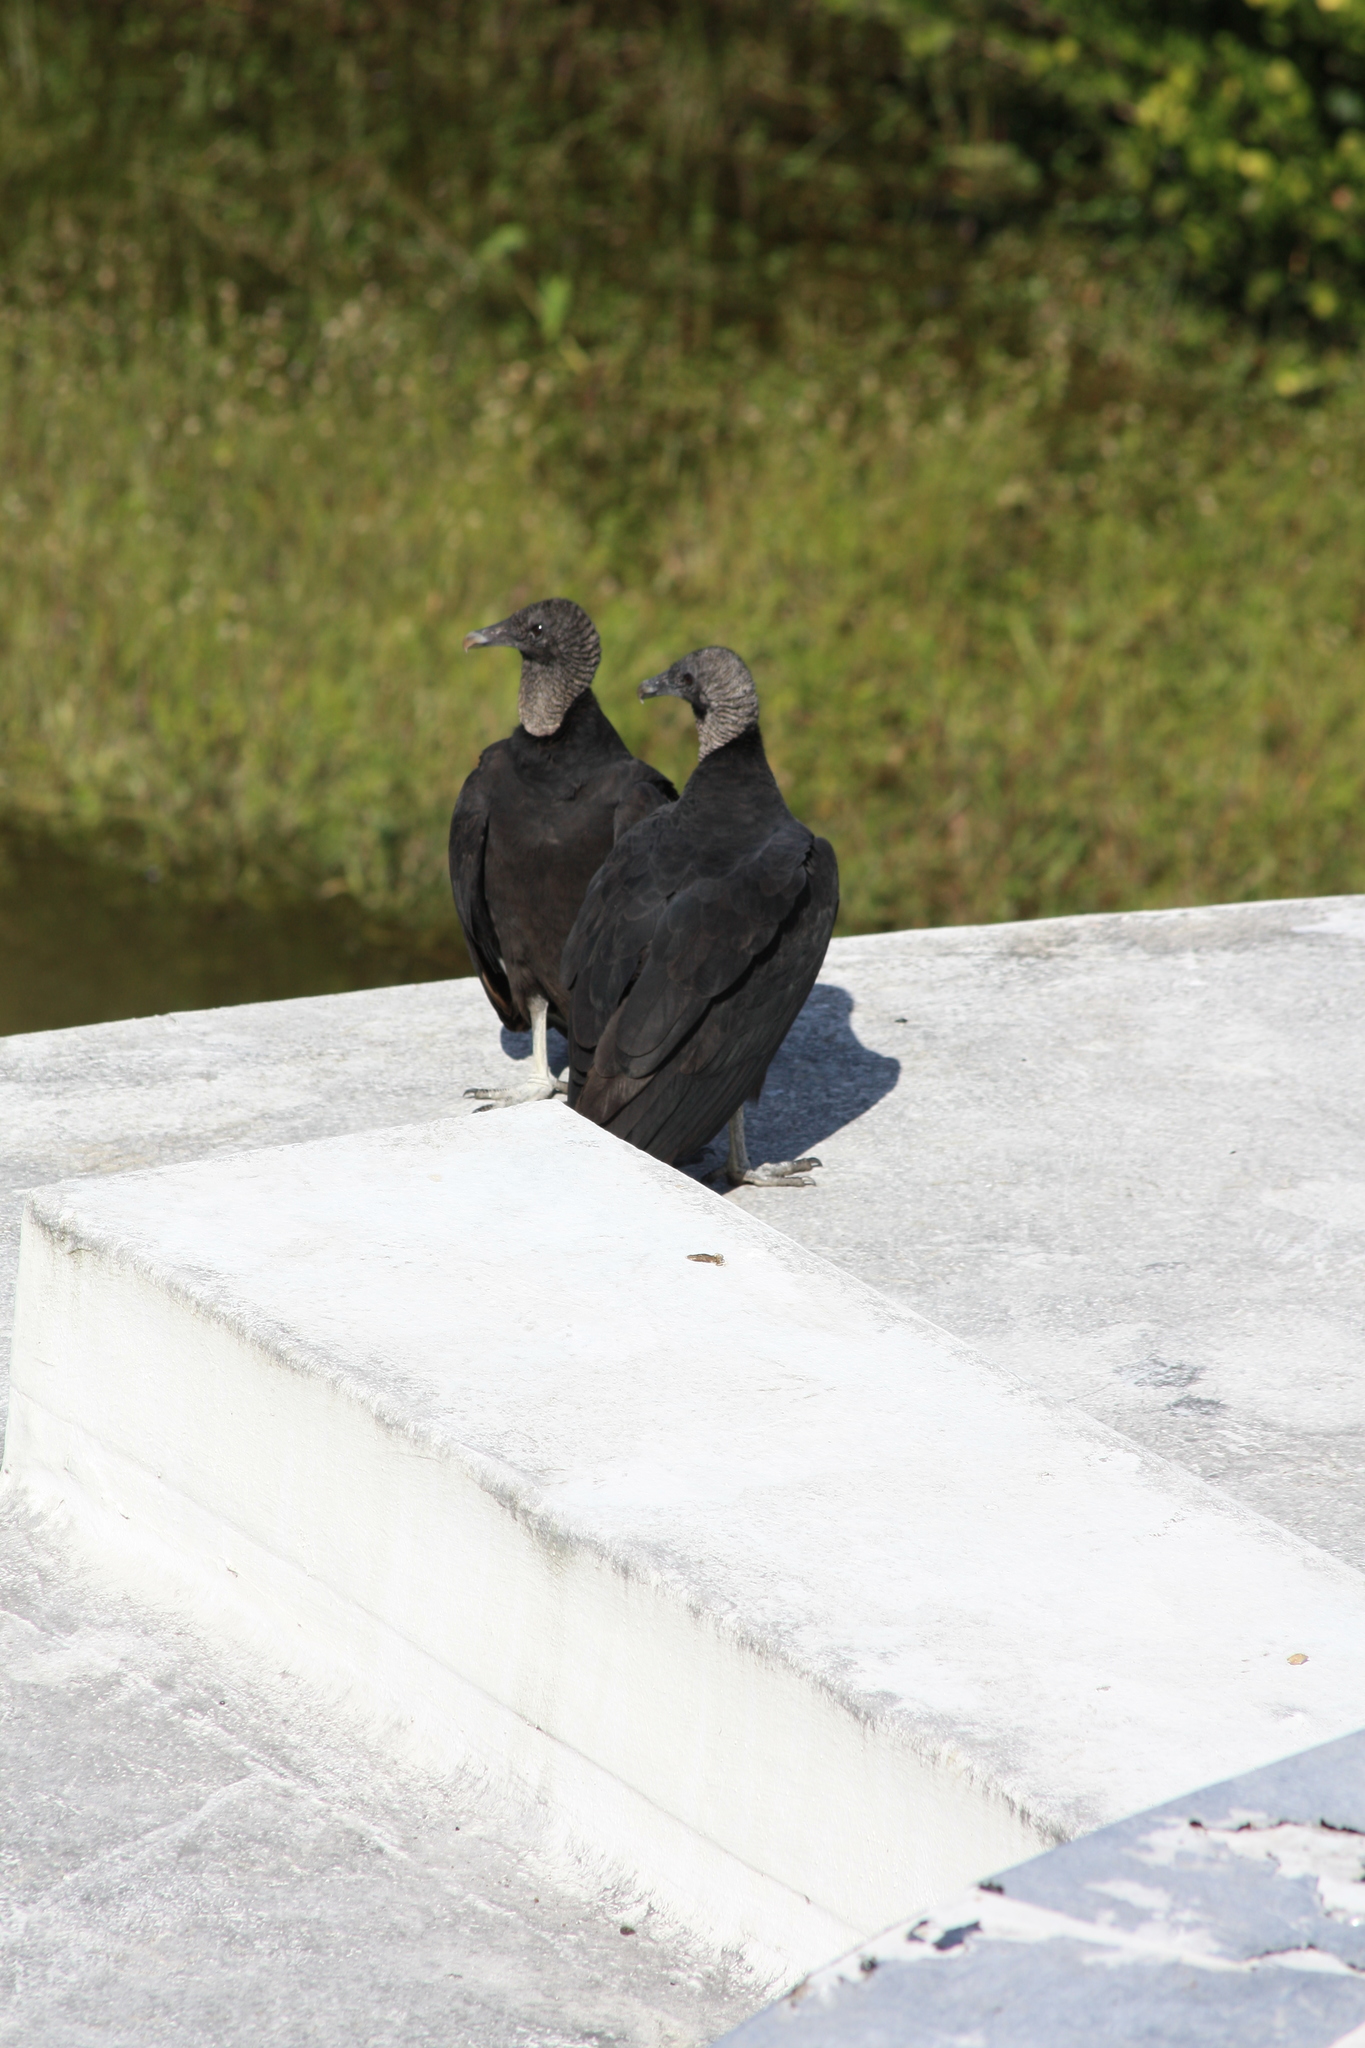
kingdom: Animalia
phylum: Chordata
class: Aves
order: Accipitriformes
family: Cathartidae
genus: Coragyps
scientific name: Coragyps atratus
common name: Black vulture
